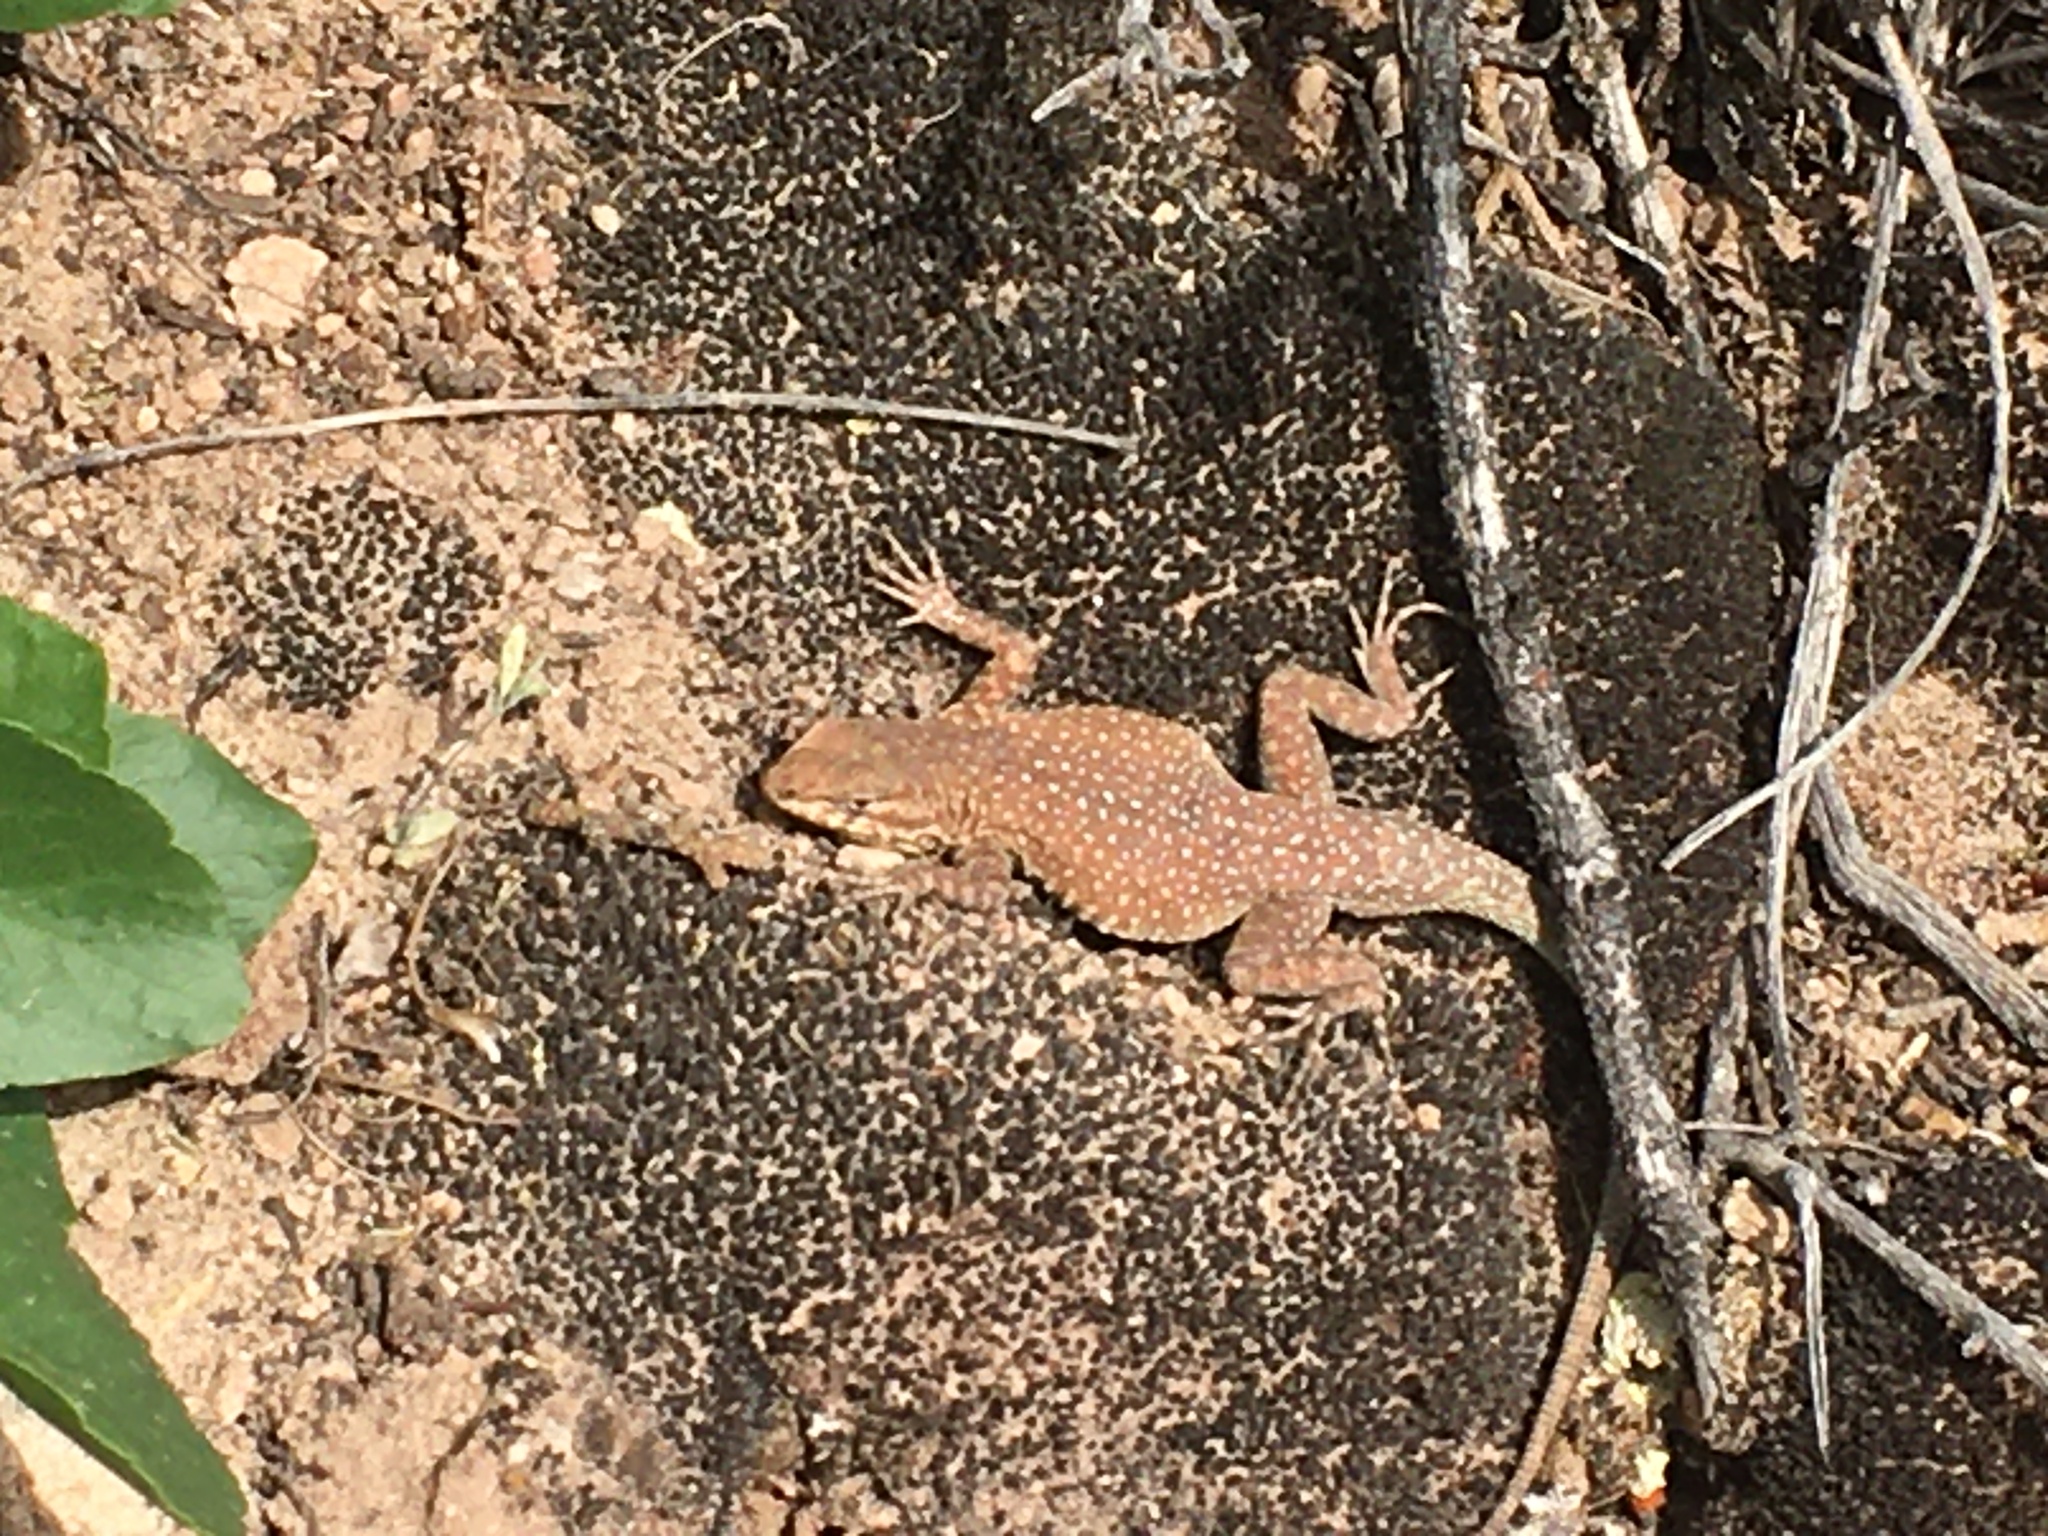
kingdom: Animalia
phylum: Chordata
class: Squamata
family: Phrynosomatidae
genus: Uta
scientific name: Uta stansburiana
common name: Side-blotched lizard
